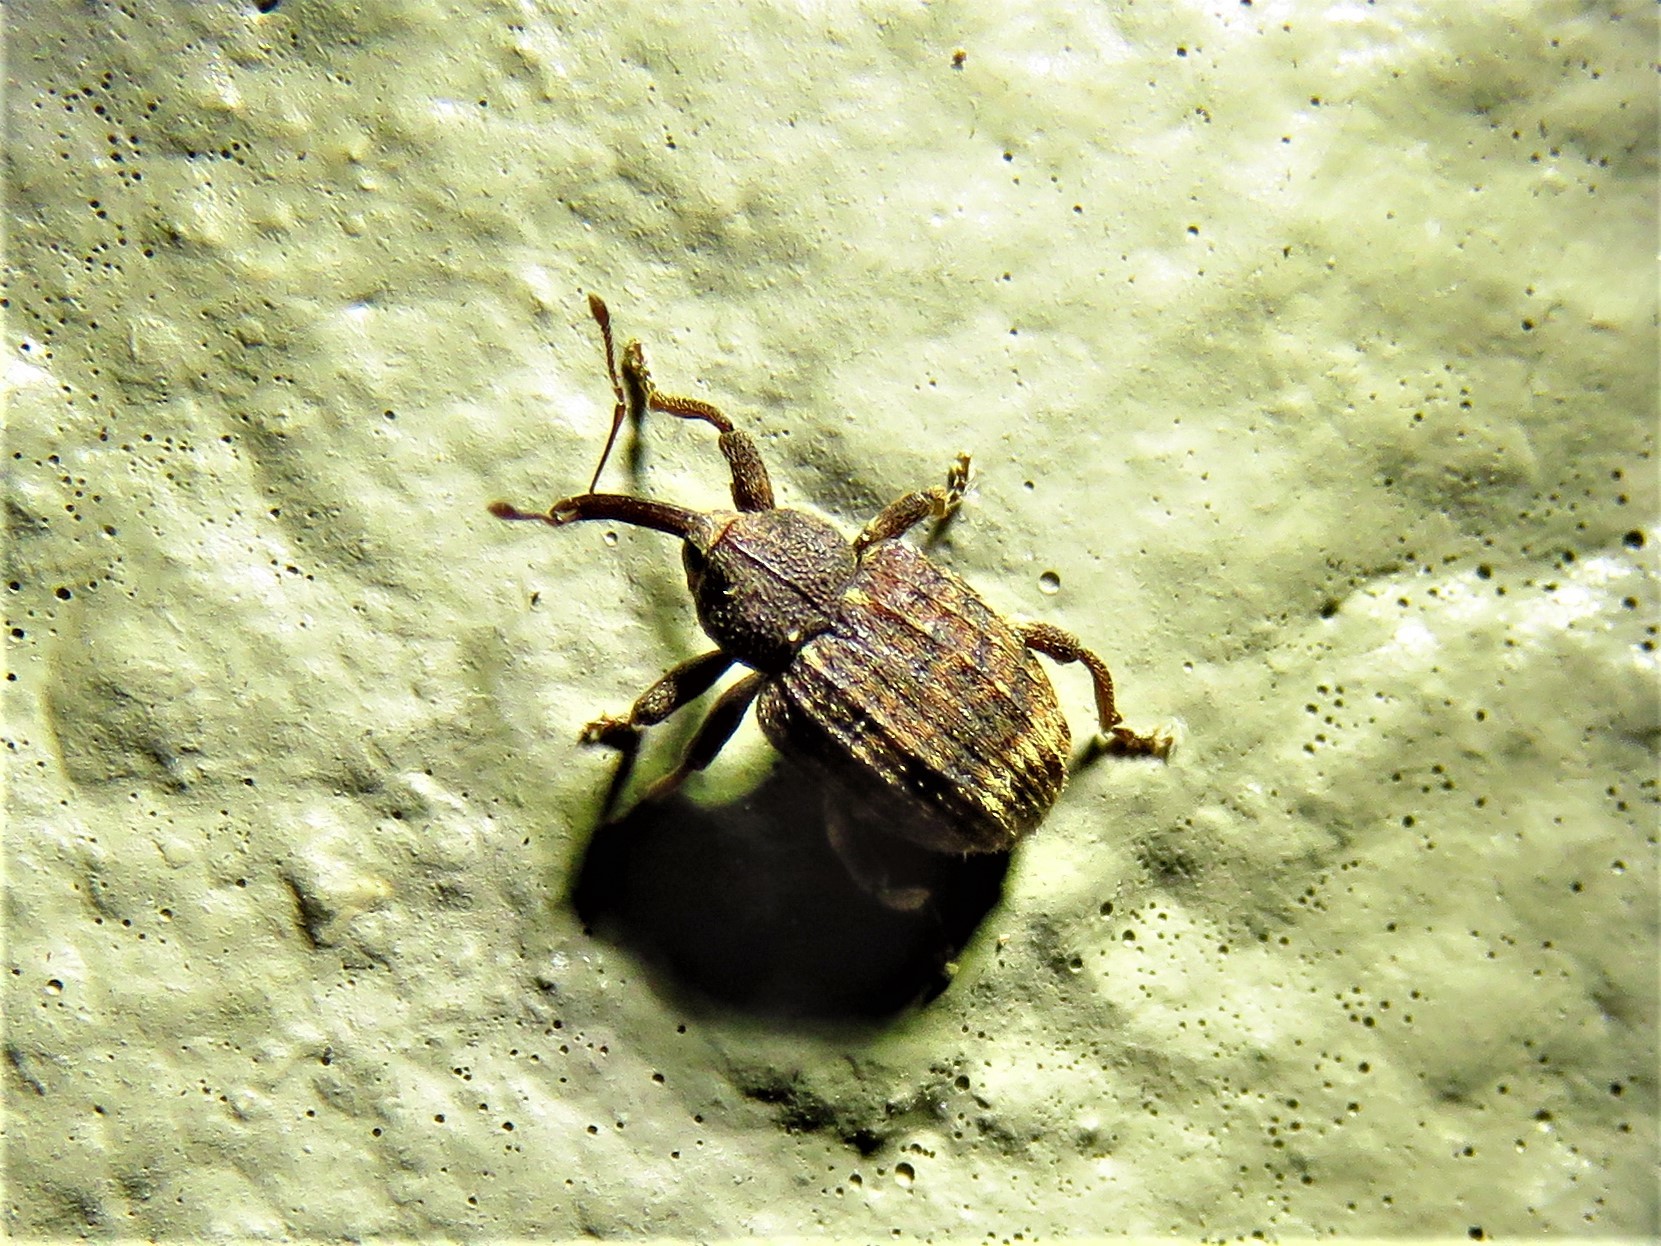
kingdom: Animalia
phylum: Arthropoda
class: Insecta
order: Coleoptera
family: Curculionidae
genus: Conotrachelus
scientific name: Conotrachelus posticatus
